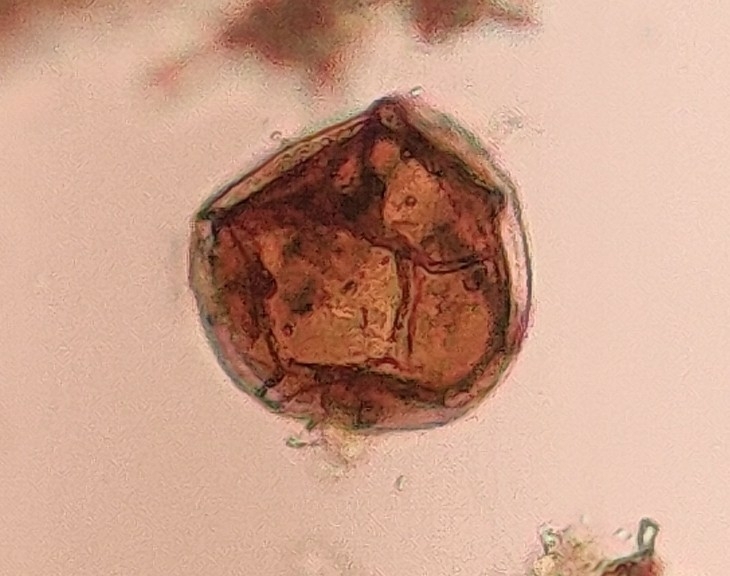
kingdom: Protozoa
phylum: Amoebozoa
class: Lobosa
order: Arcellinida
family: Arcellidae
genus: Arcella
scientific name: Arcella
